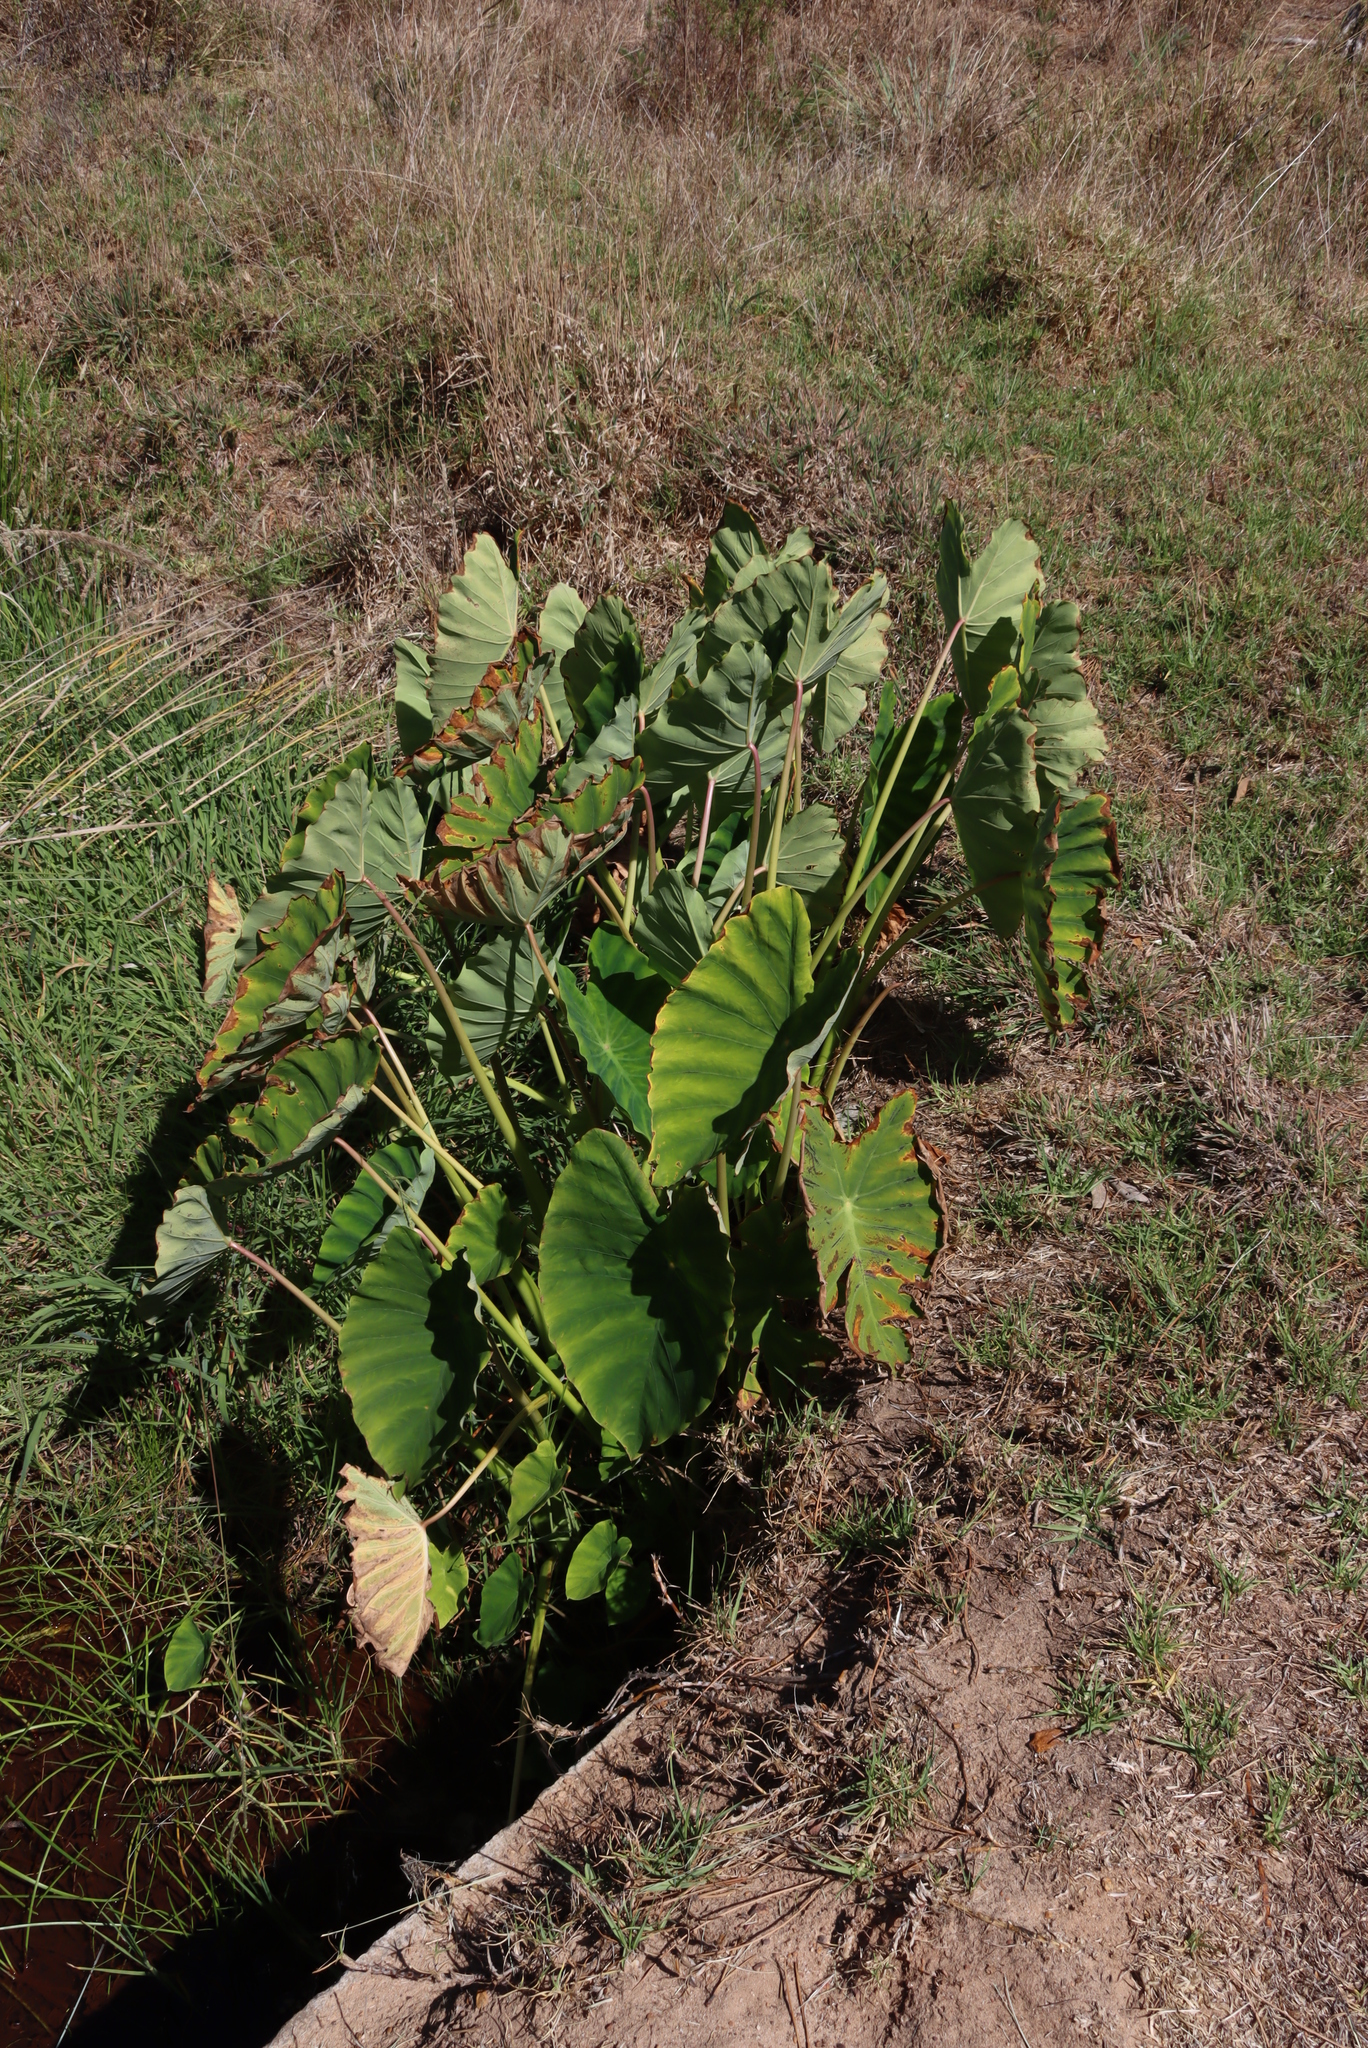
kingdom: Plantae
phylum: Tracheophyta
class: Liliopsida
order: Alismatales
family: Araceae
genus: Colocasia
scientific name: Colocasia esculenta
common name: Taro
